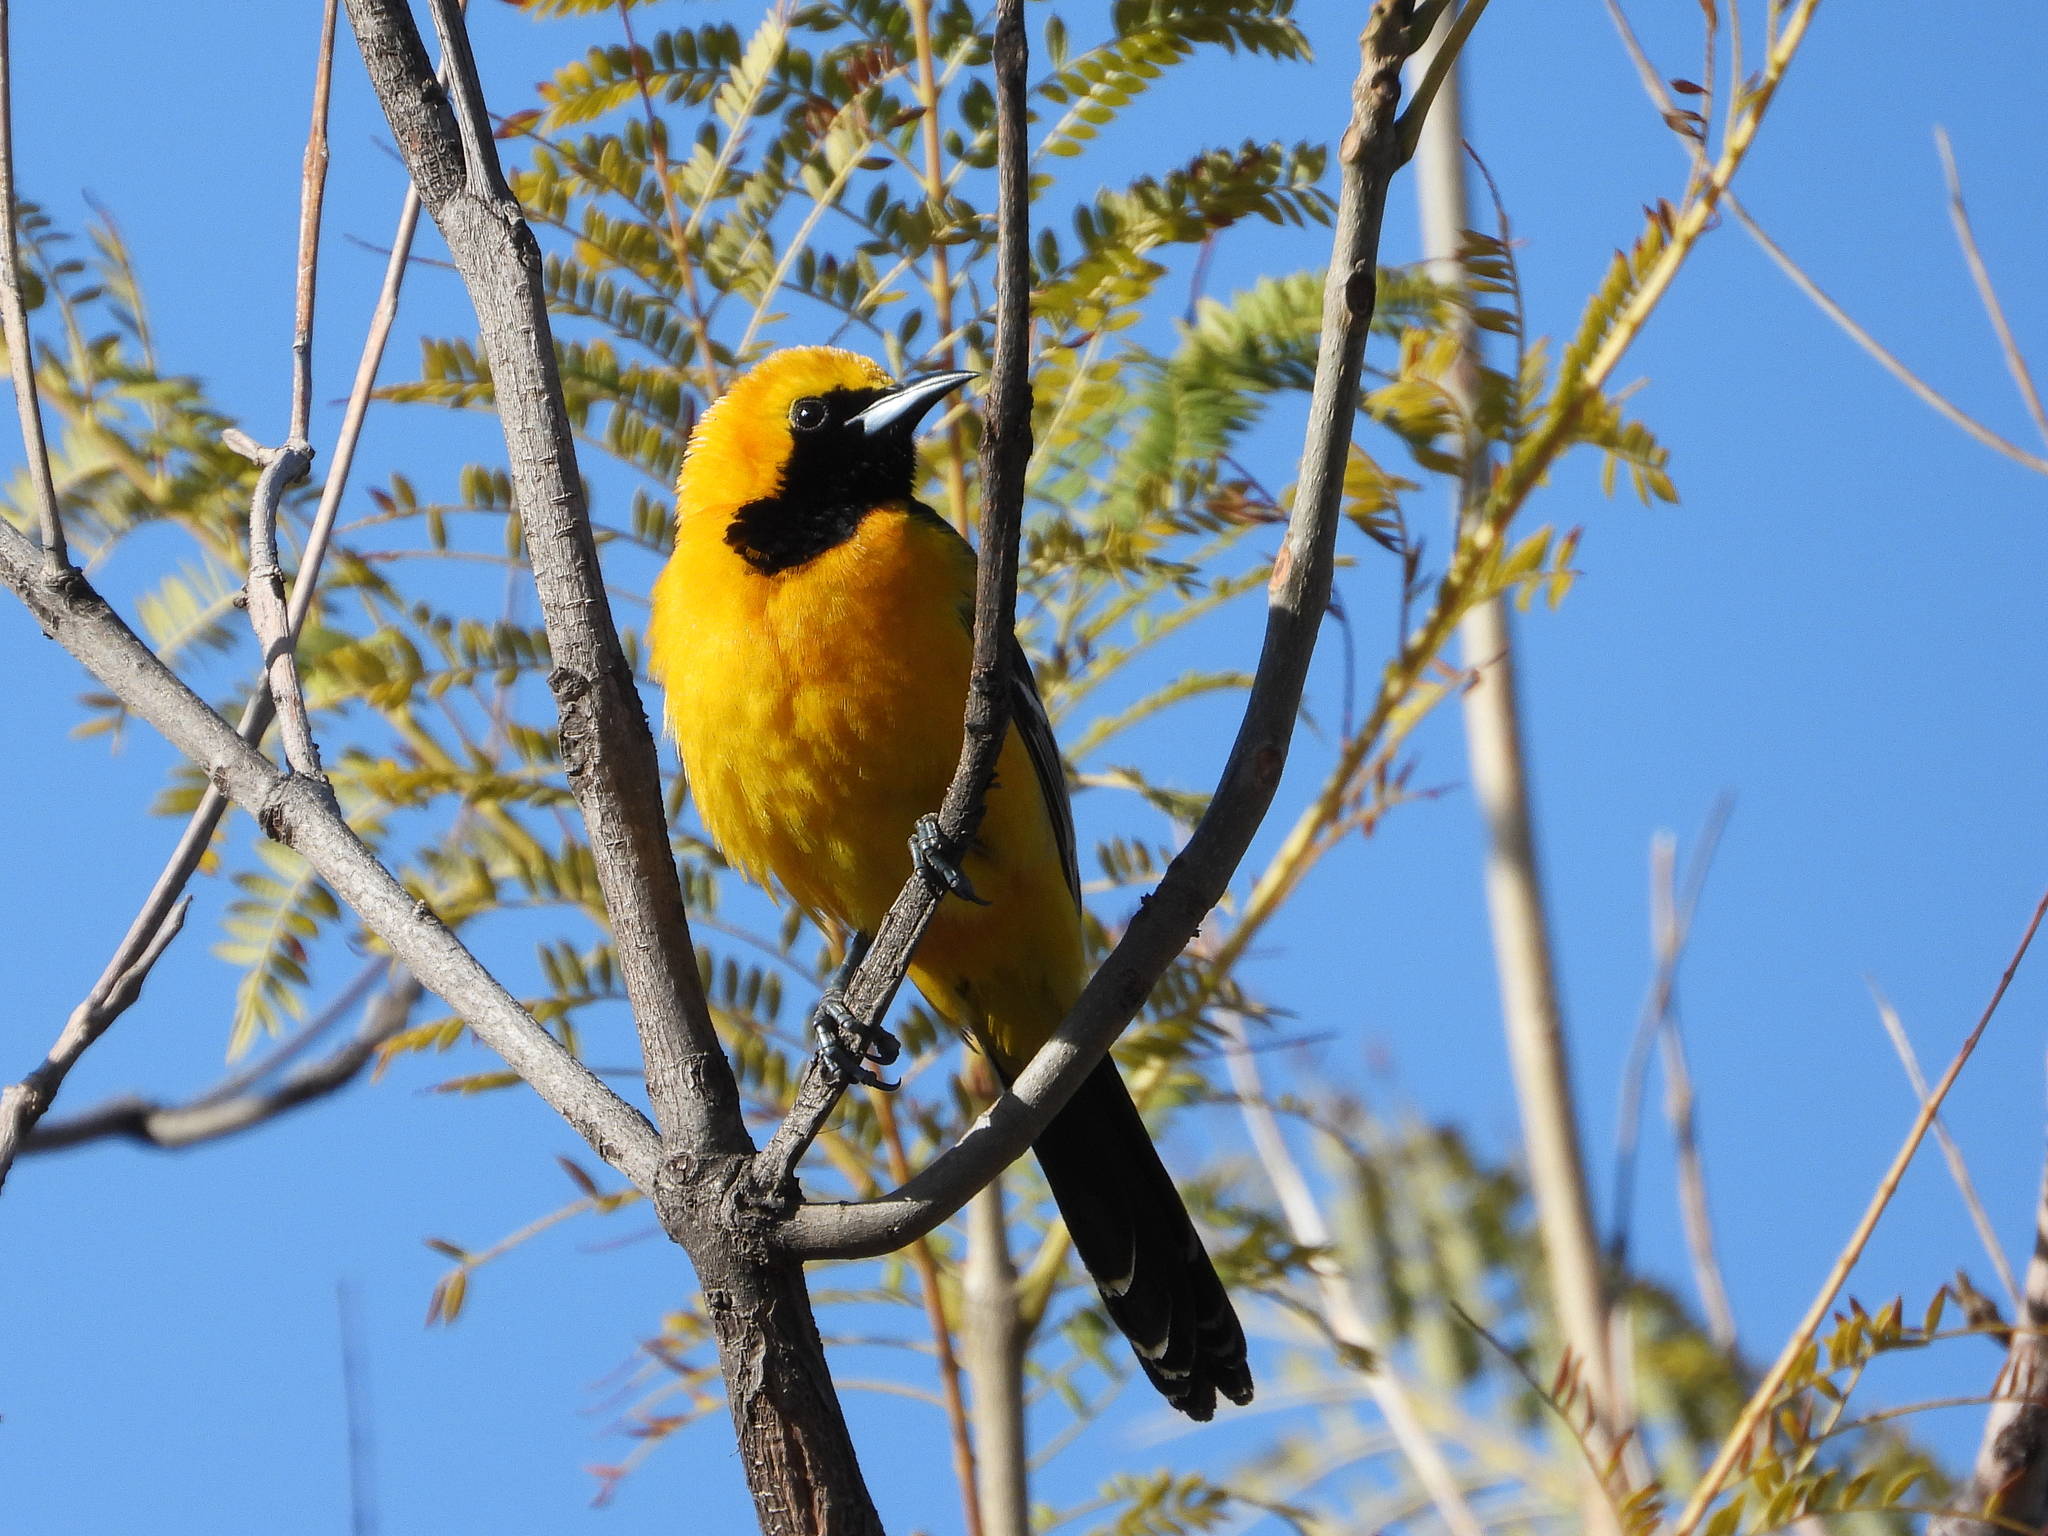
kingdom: Animalia
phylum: Chordata
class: Aves
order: Passeriformes
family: Icteridae
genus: Icterus
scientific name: Icterus cucullatus
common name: Hooded oriole
